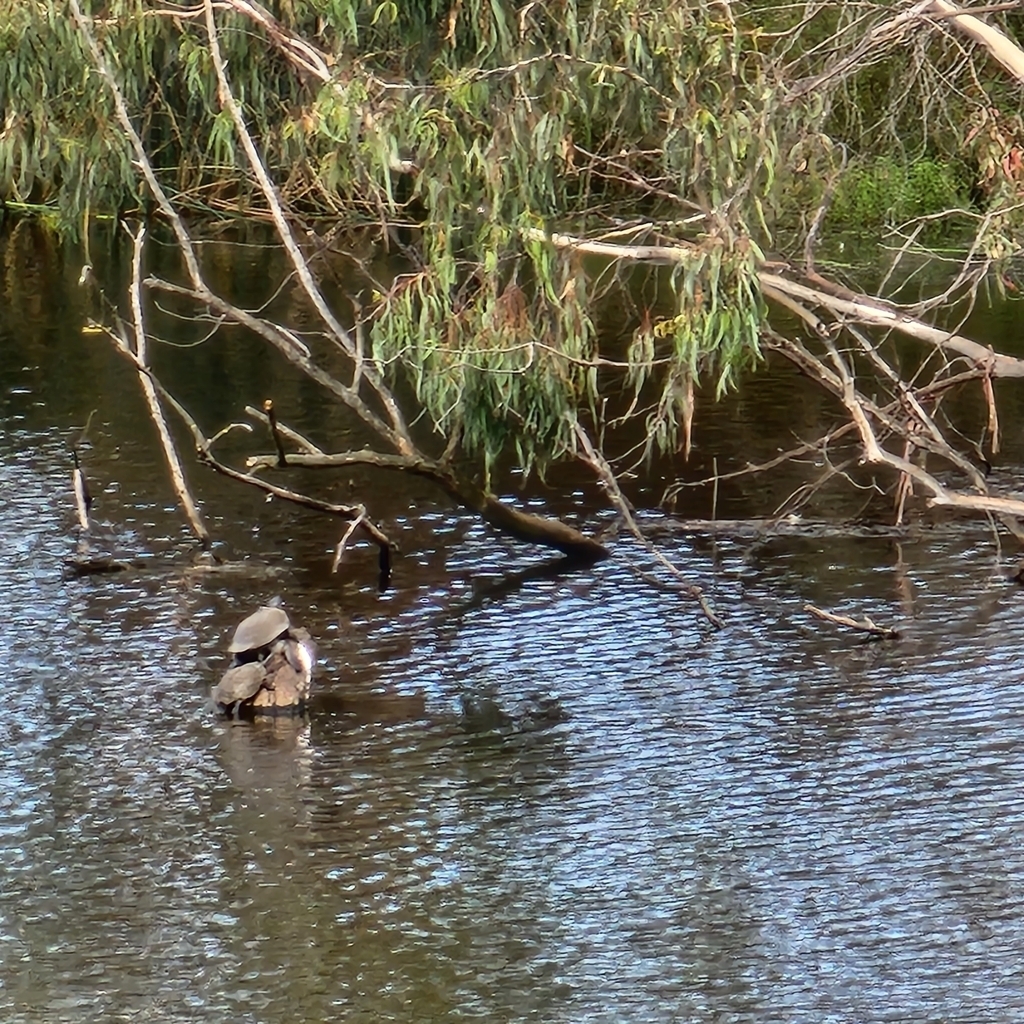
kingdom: Animalia
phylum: Chordata
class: Testudines
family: Chelidae
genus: Chelodina
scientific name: Chelodina longicollis
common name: Eastern snake-necked turtle
